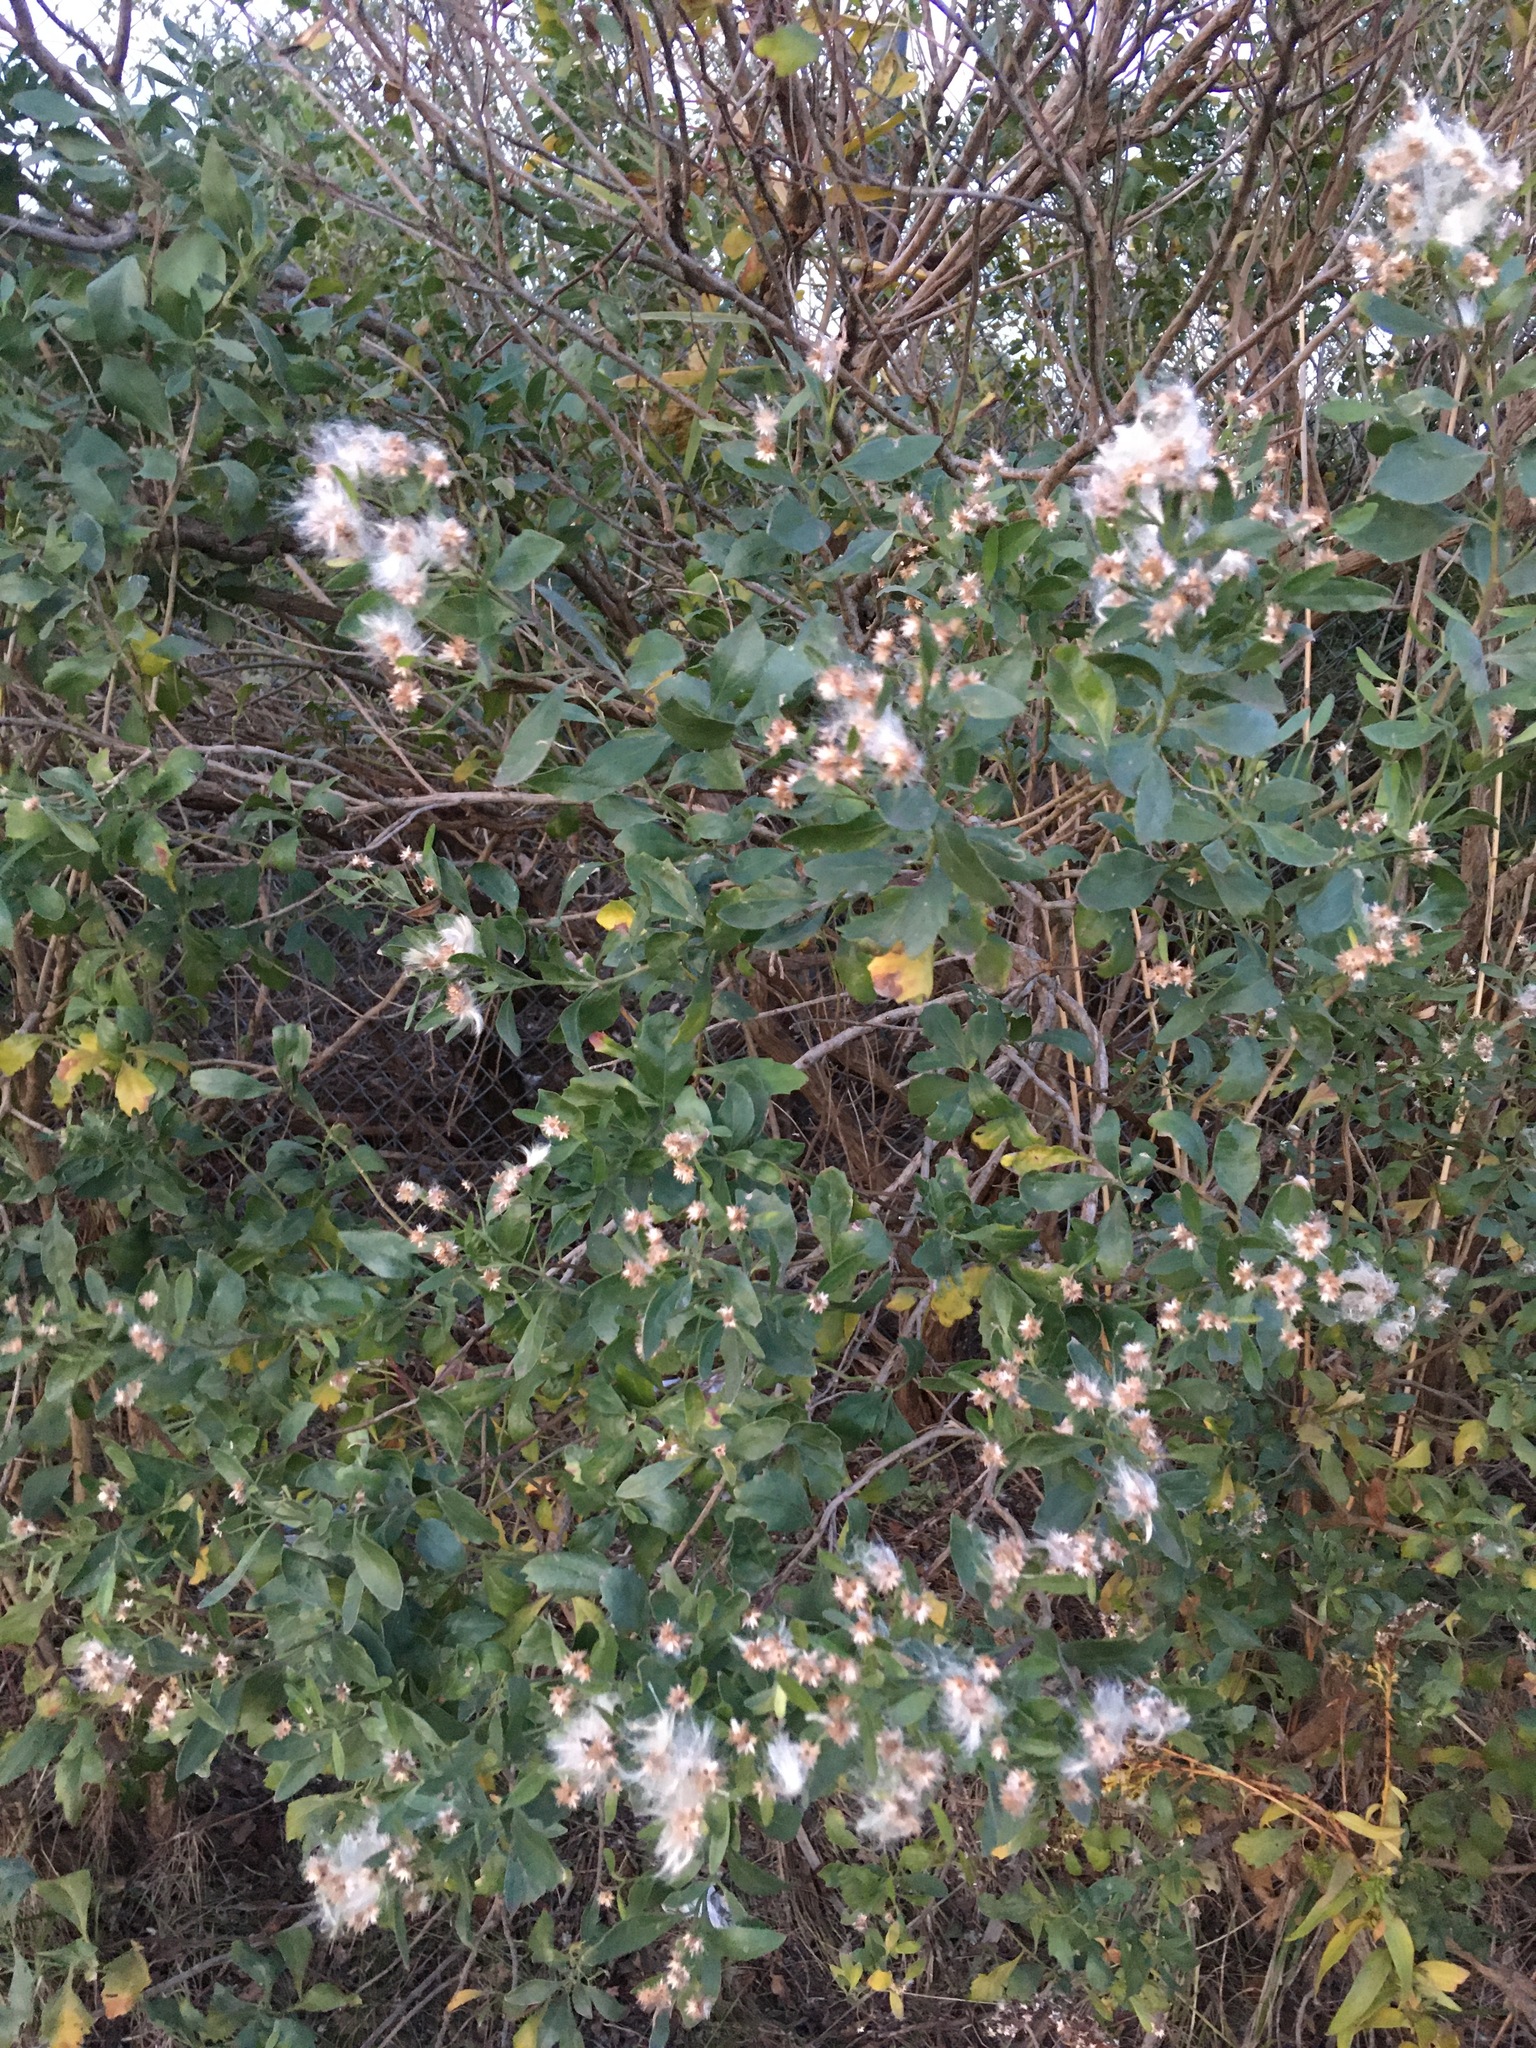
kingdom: Plantae
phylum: Tracheophyta
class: Magnoliopsida
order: Asterales
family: Asteraceae
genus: Baccharis
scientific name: Baccharis halimifolia
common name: Eastern baccharis
